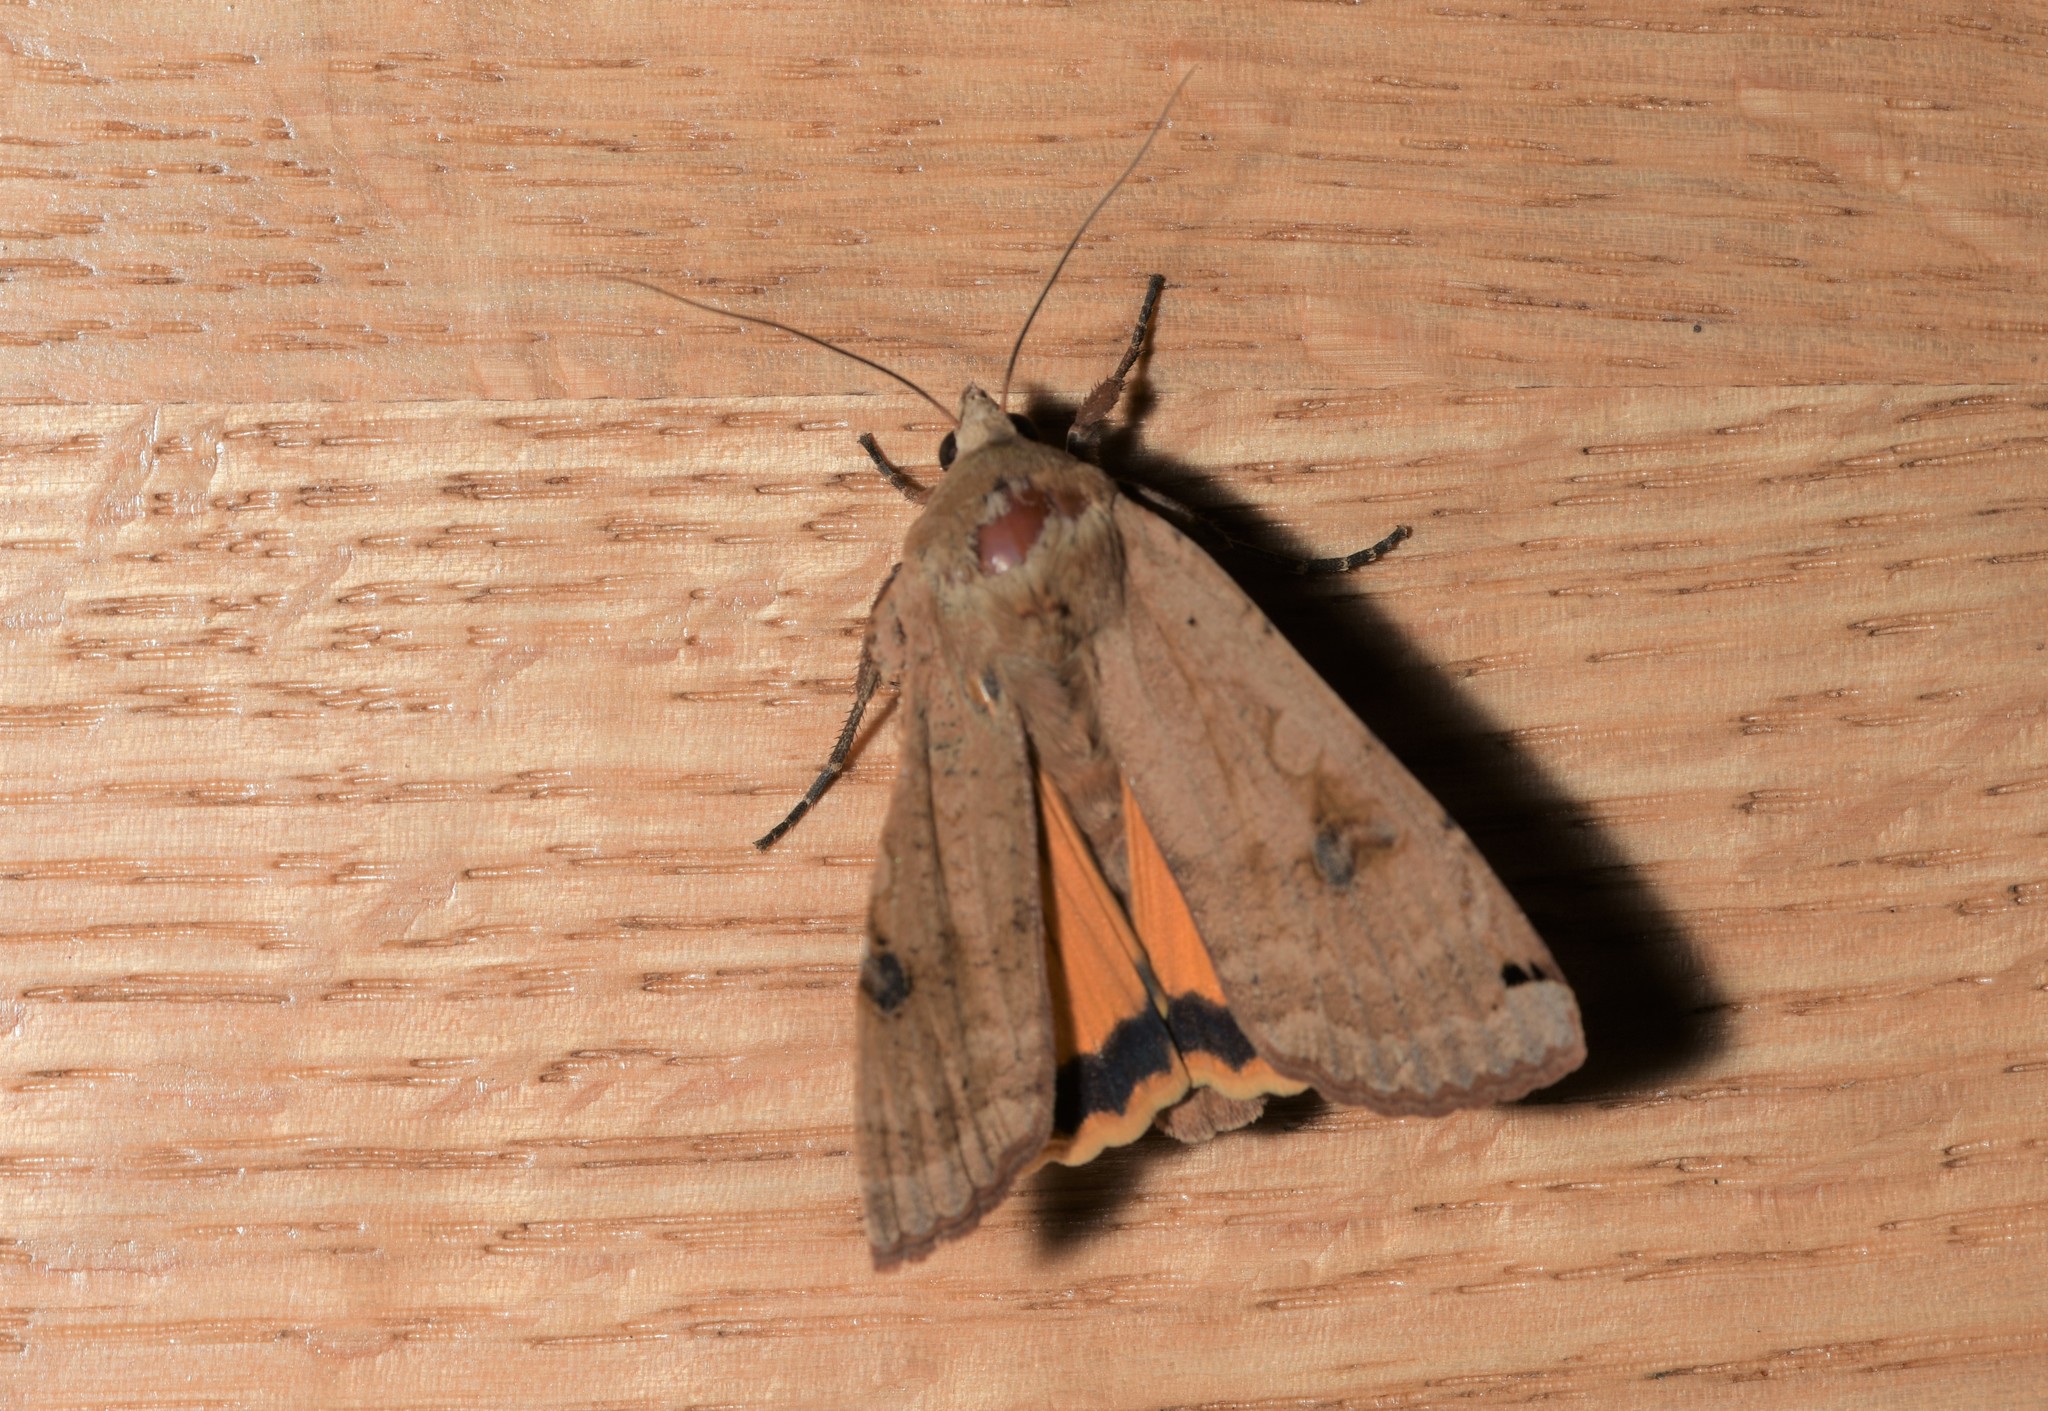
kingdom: Animalia
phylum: Arthropoda
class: Insecta
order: Lepidoptera
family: Noctuidae
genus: Noctua
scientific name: Noctua pronuba
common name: Large yellow underwing
